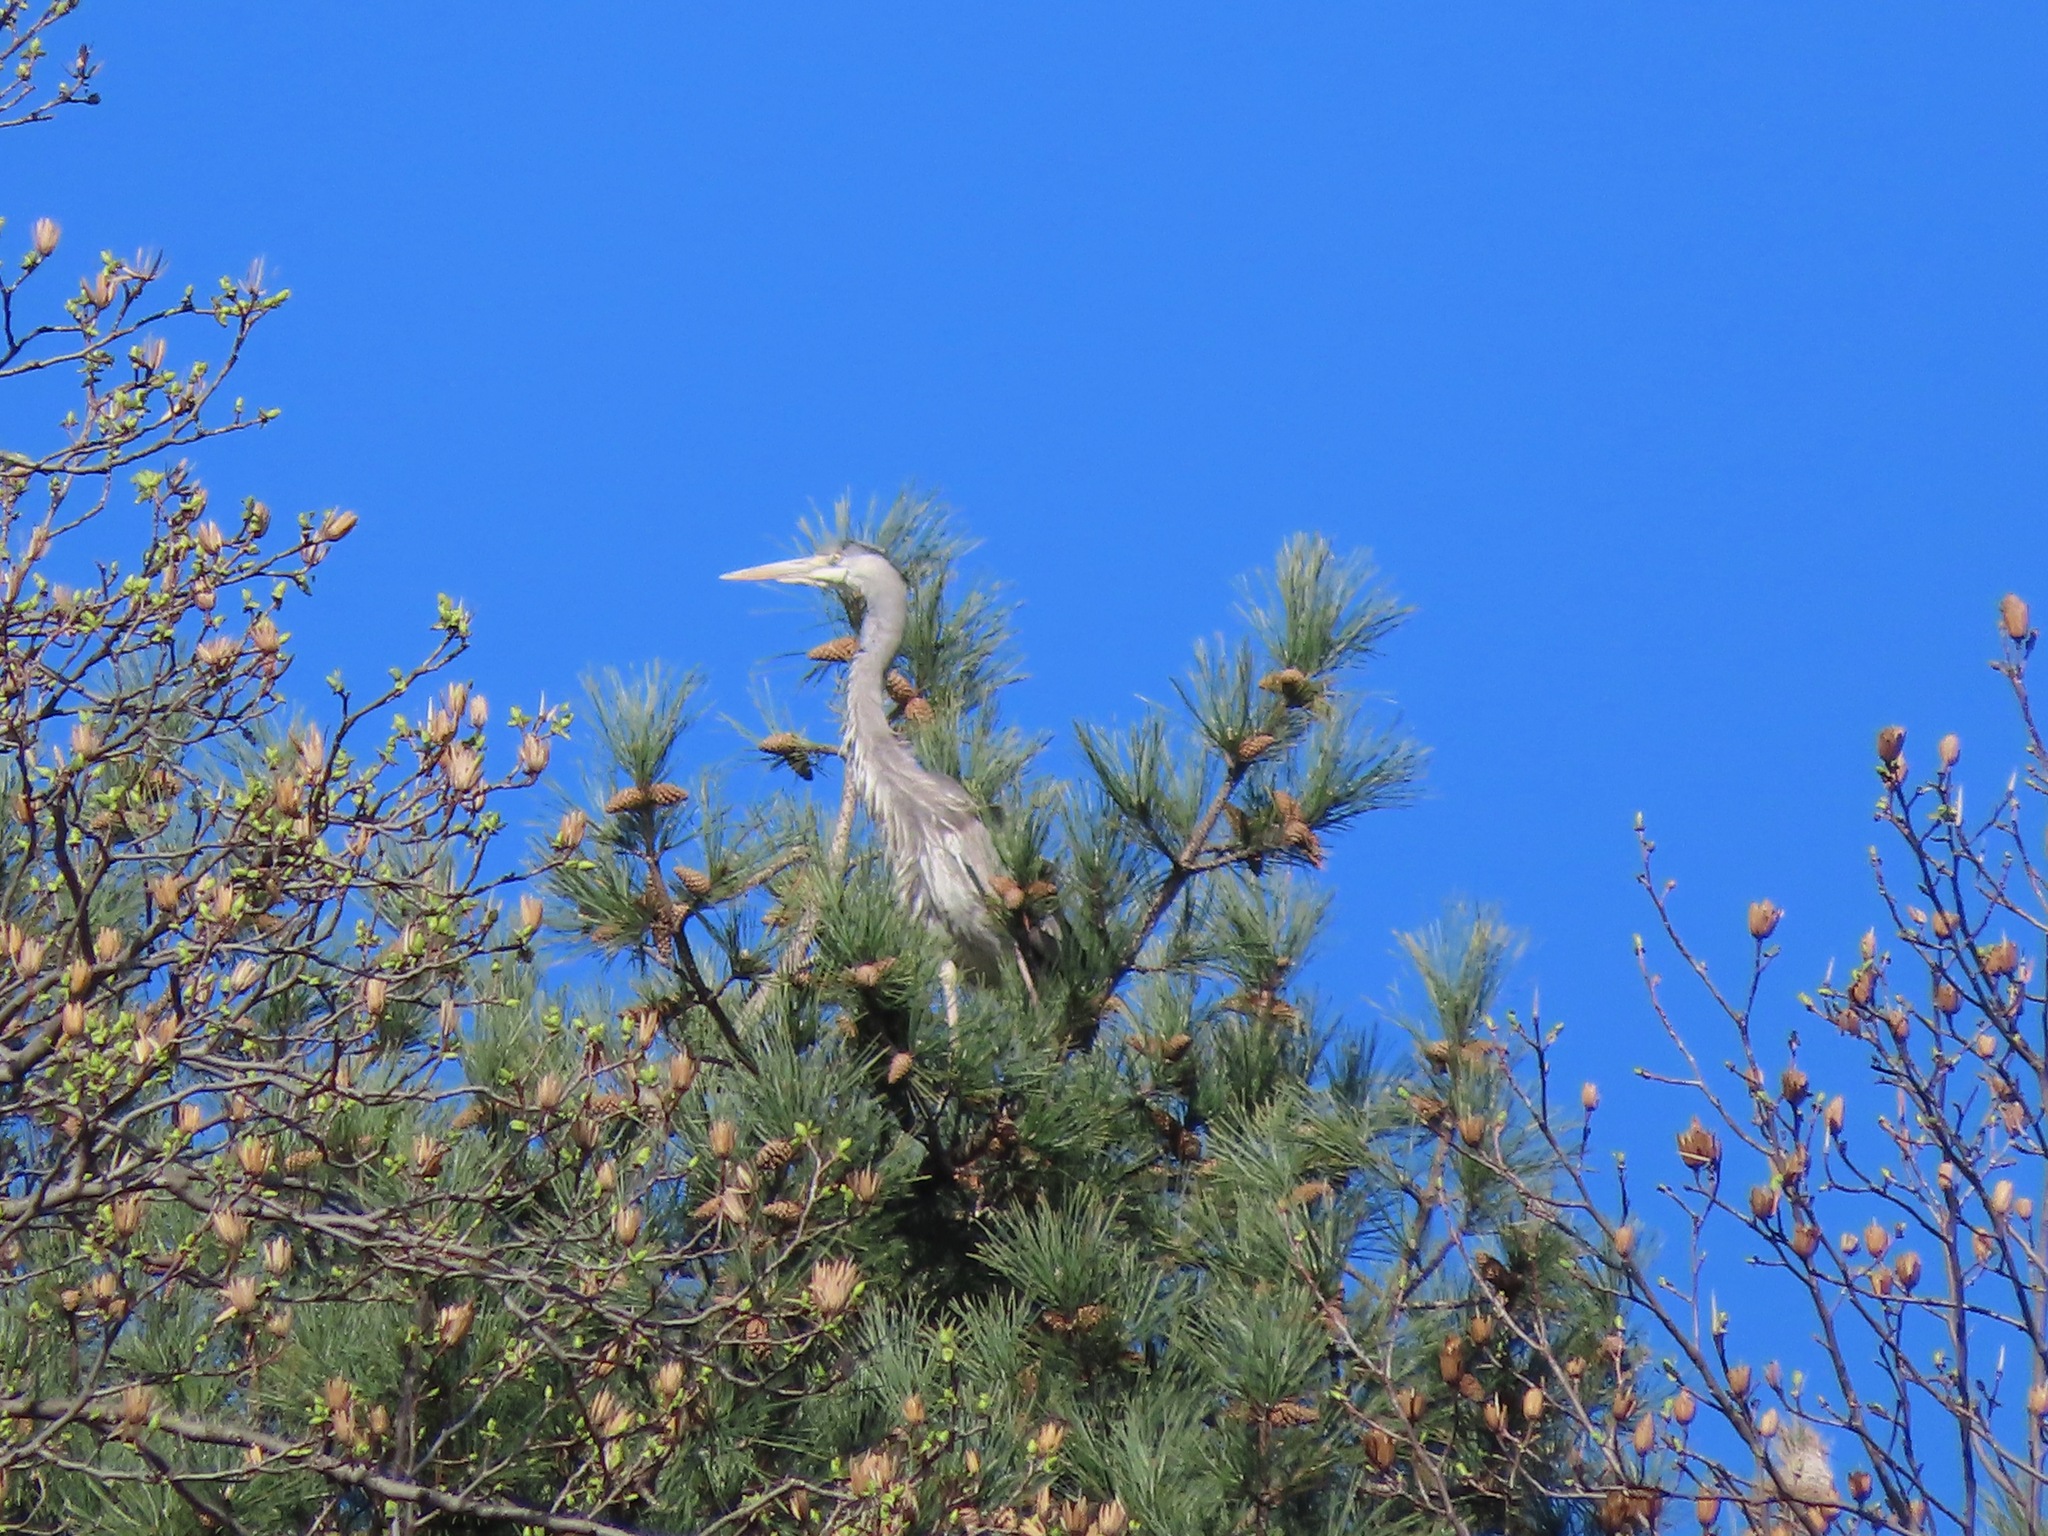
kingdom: Animalia
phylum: Chordata
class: Aves
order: Pelecaniformes
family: Ardeidae
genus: Ardea
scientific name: Ardea cinerea
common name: Grey heron
